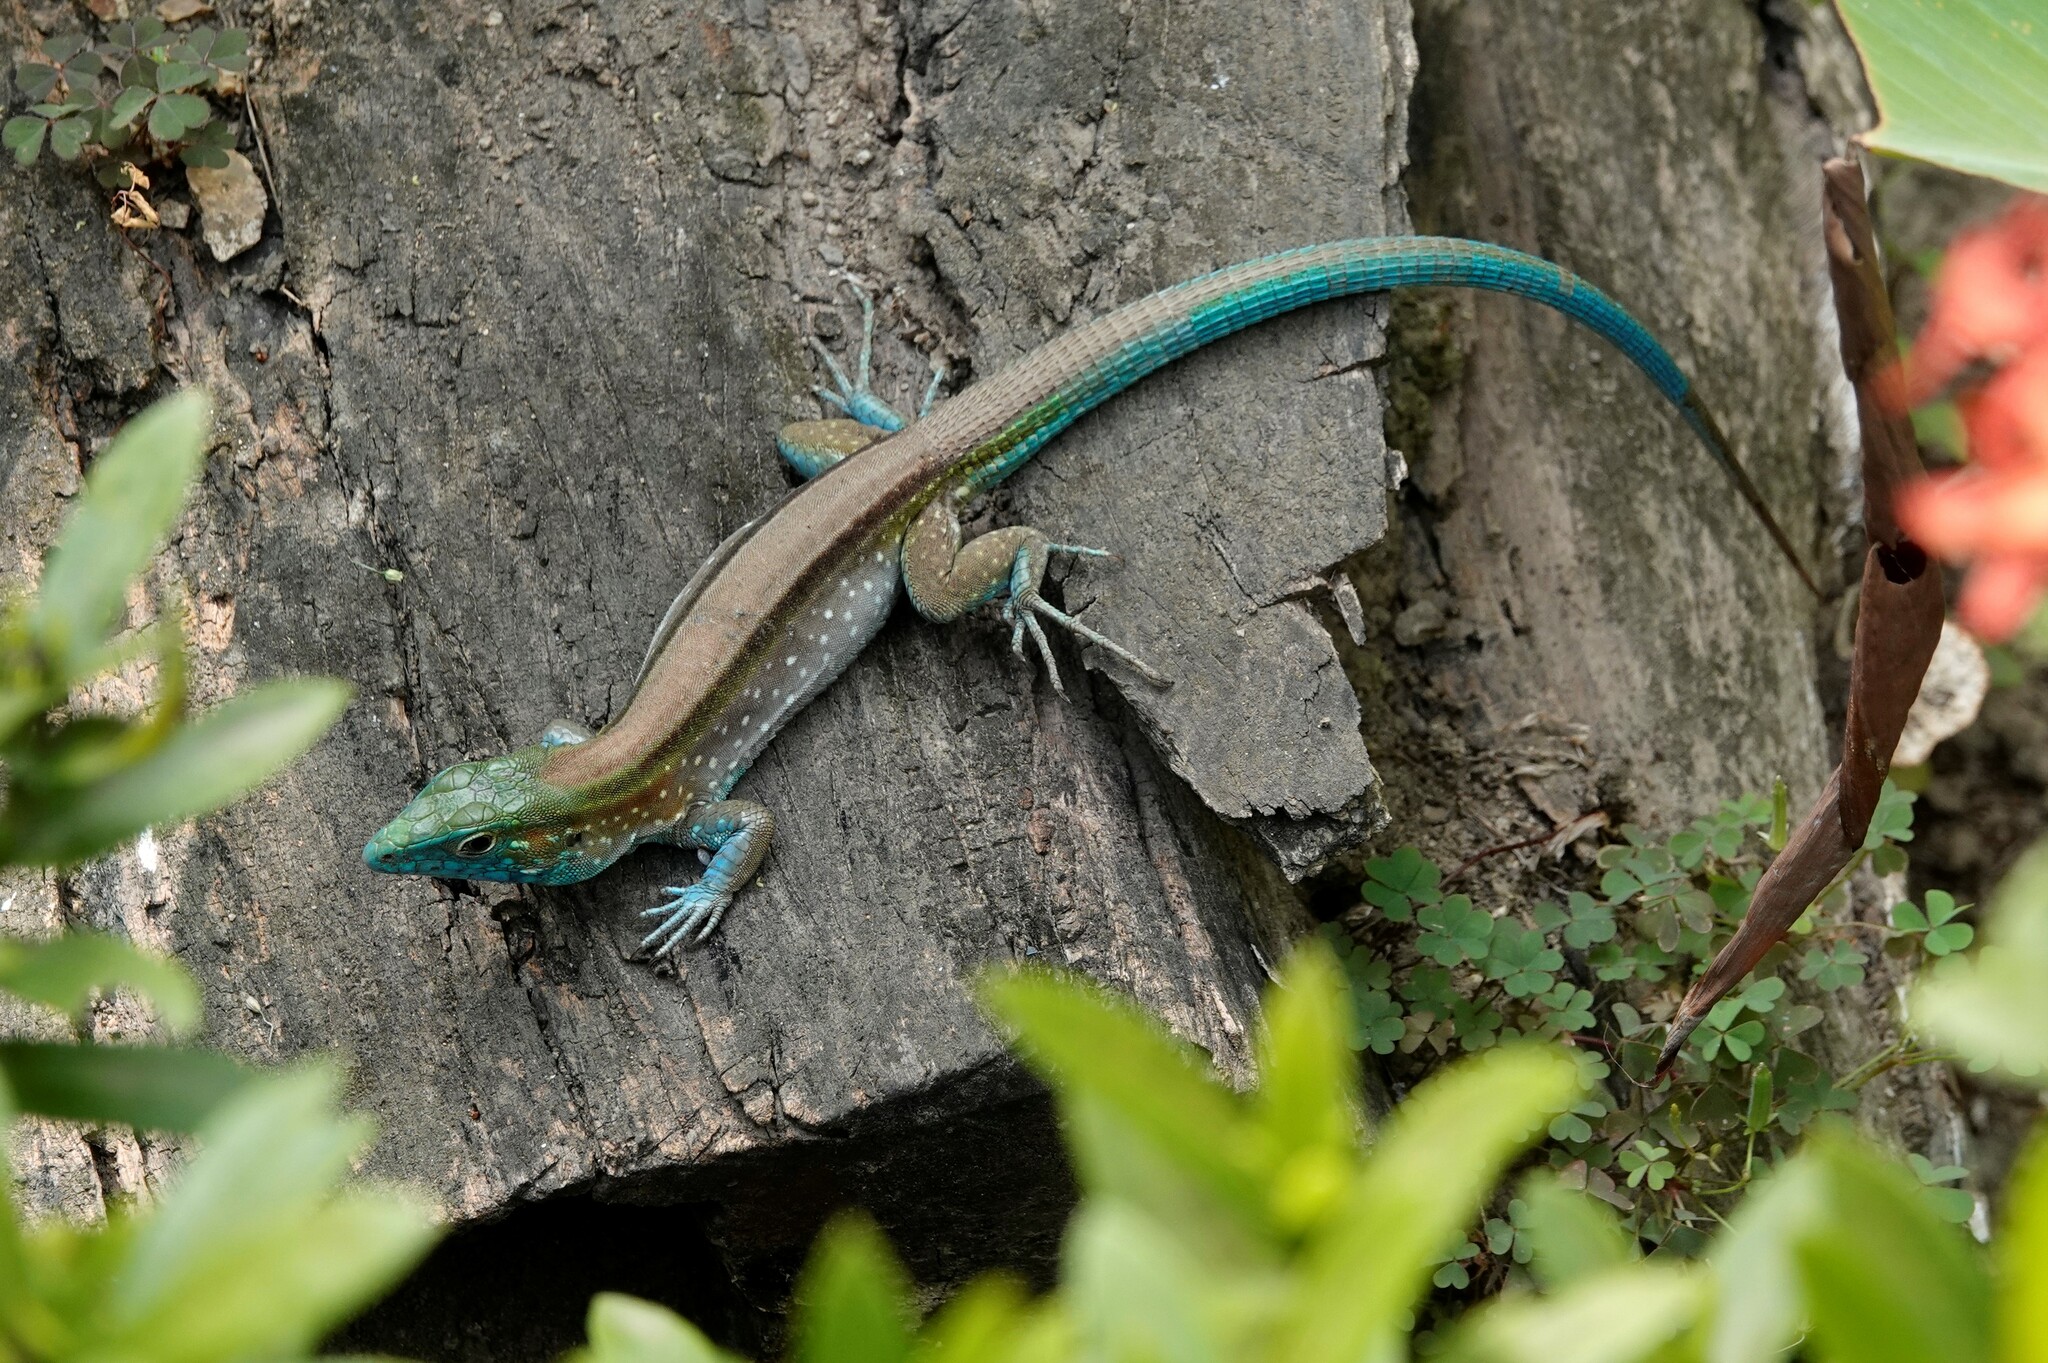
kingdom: Animalia
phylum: Chordata
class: Squamata
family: Teiidae
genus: Cnemidophorus
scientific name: Cnemidophorus gaigei
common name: Gaige’s rainbow lizard
